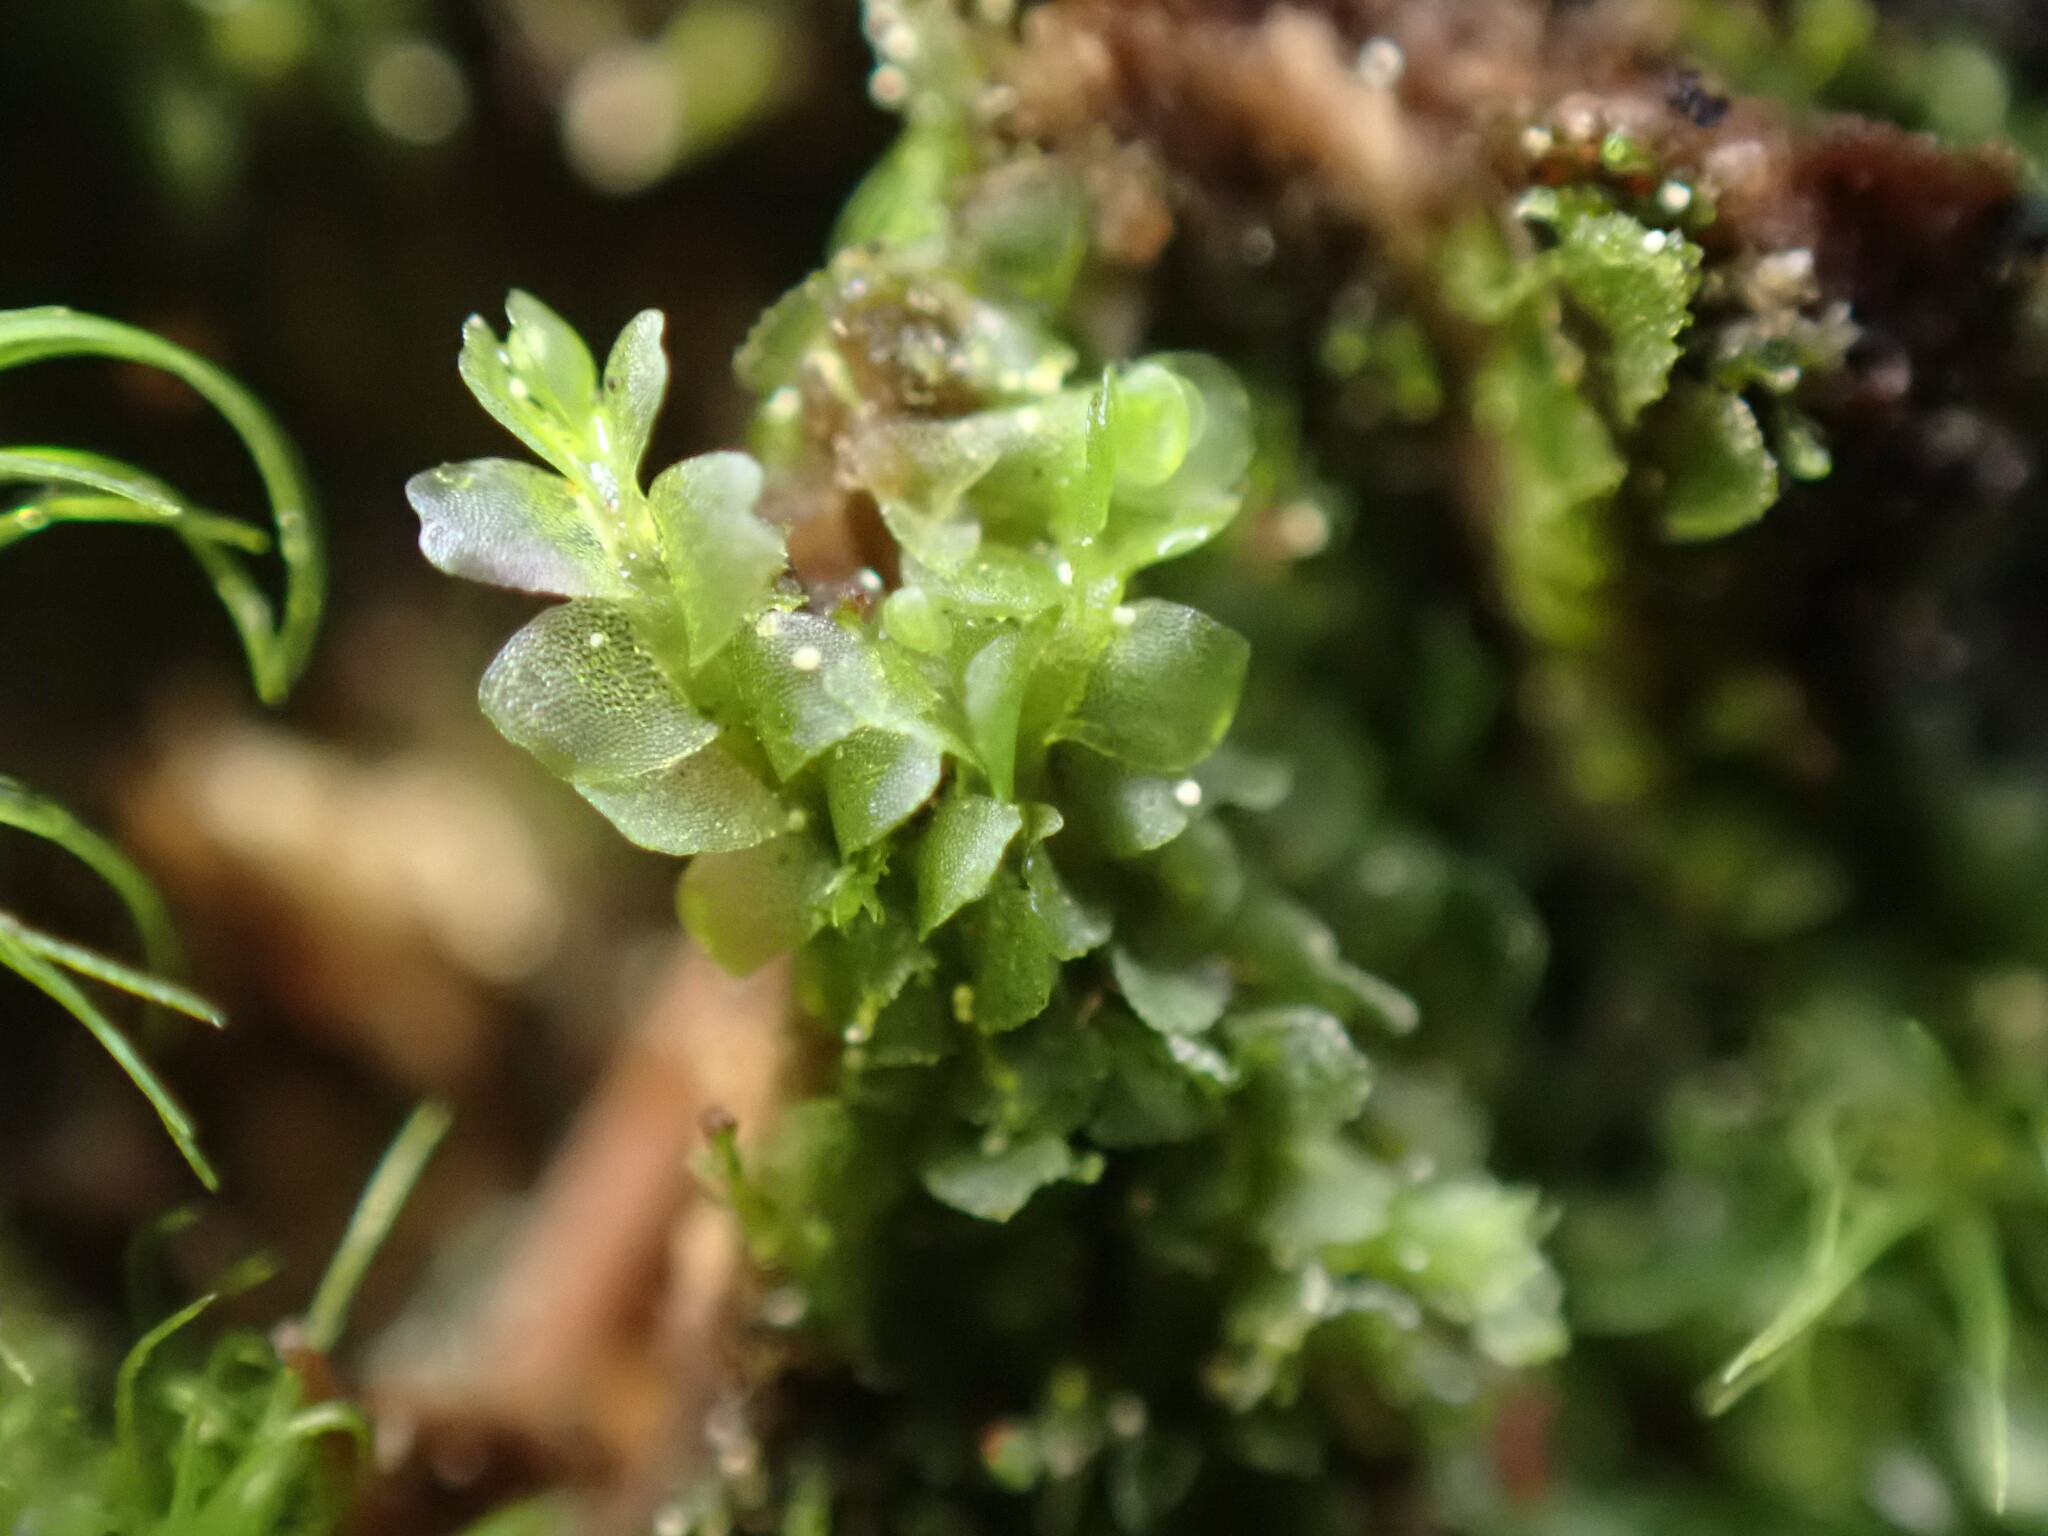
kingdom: Plantae
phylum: Marchantiophyta
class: Jungermanniopsida
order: Jungermanniales
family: Lophocoleaceae
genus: Lophocolea
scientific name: Lophocolea heterophylla
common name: Variable-leaved crestwort
